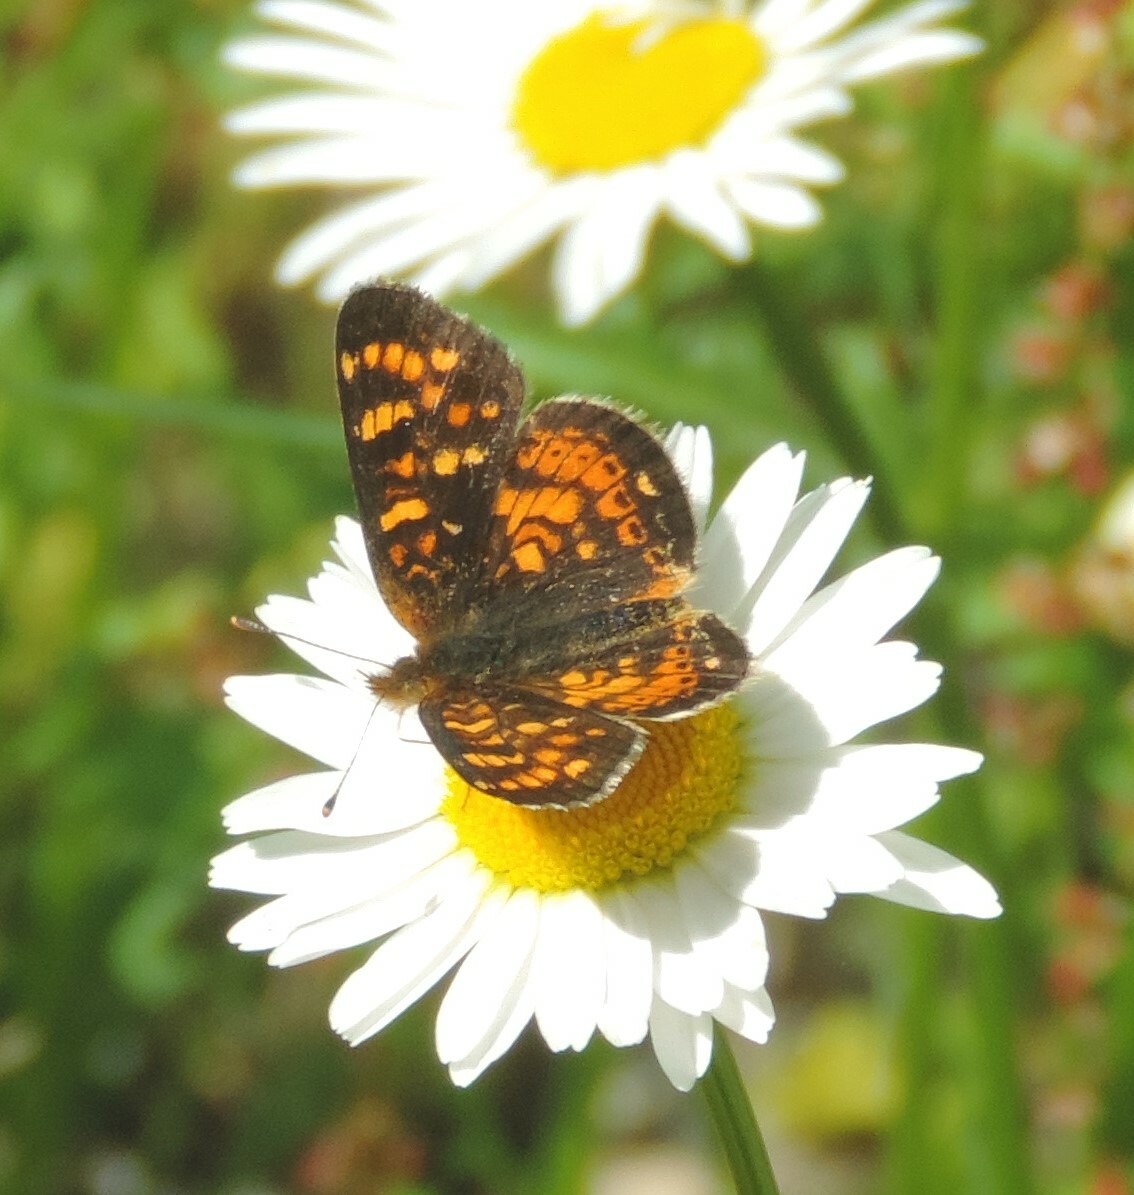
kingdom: Animalia
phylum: Arthropoda
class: Insecta
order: Lepidoptera
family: Nymphalidae
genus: Phyciodes
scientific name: Phyciodes tharos
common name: Pearl crescent
